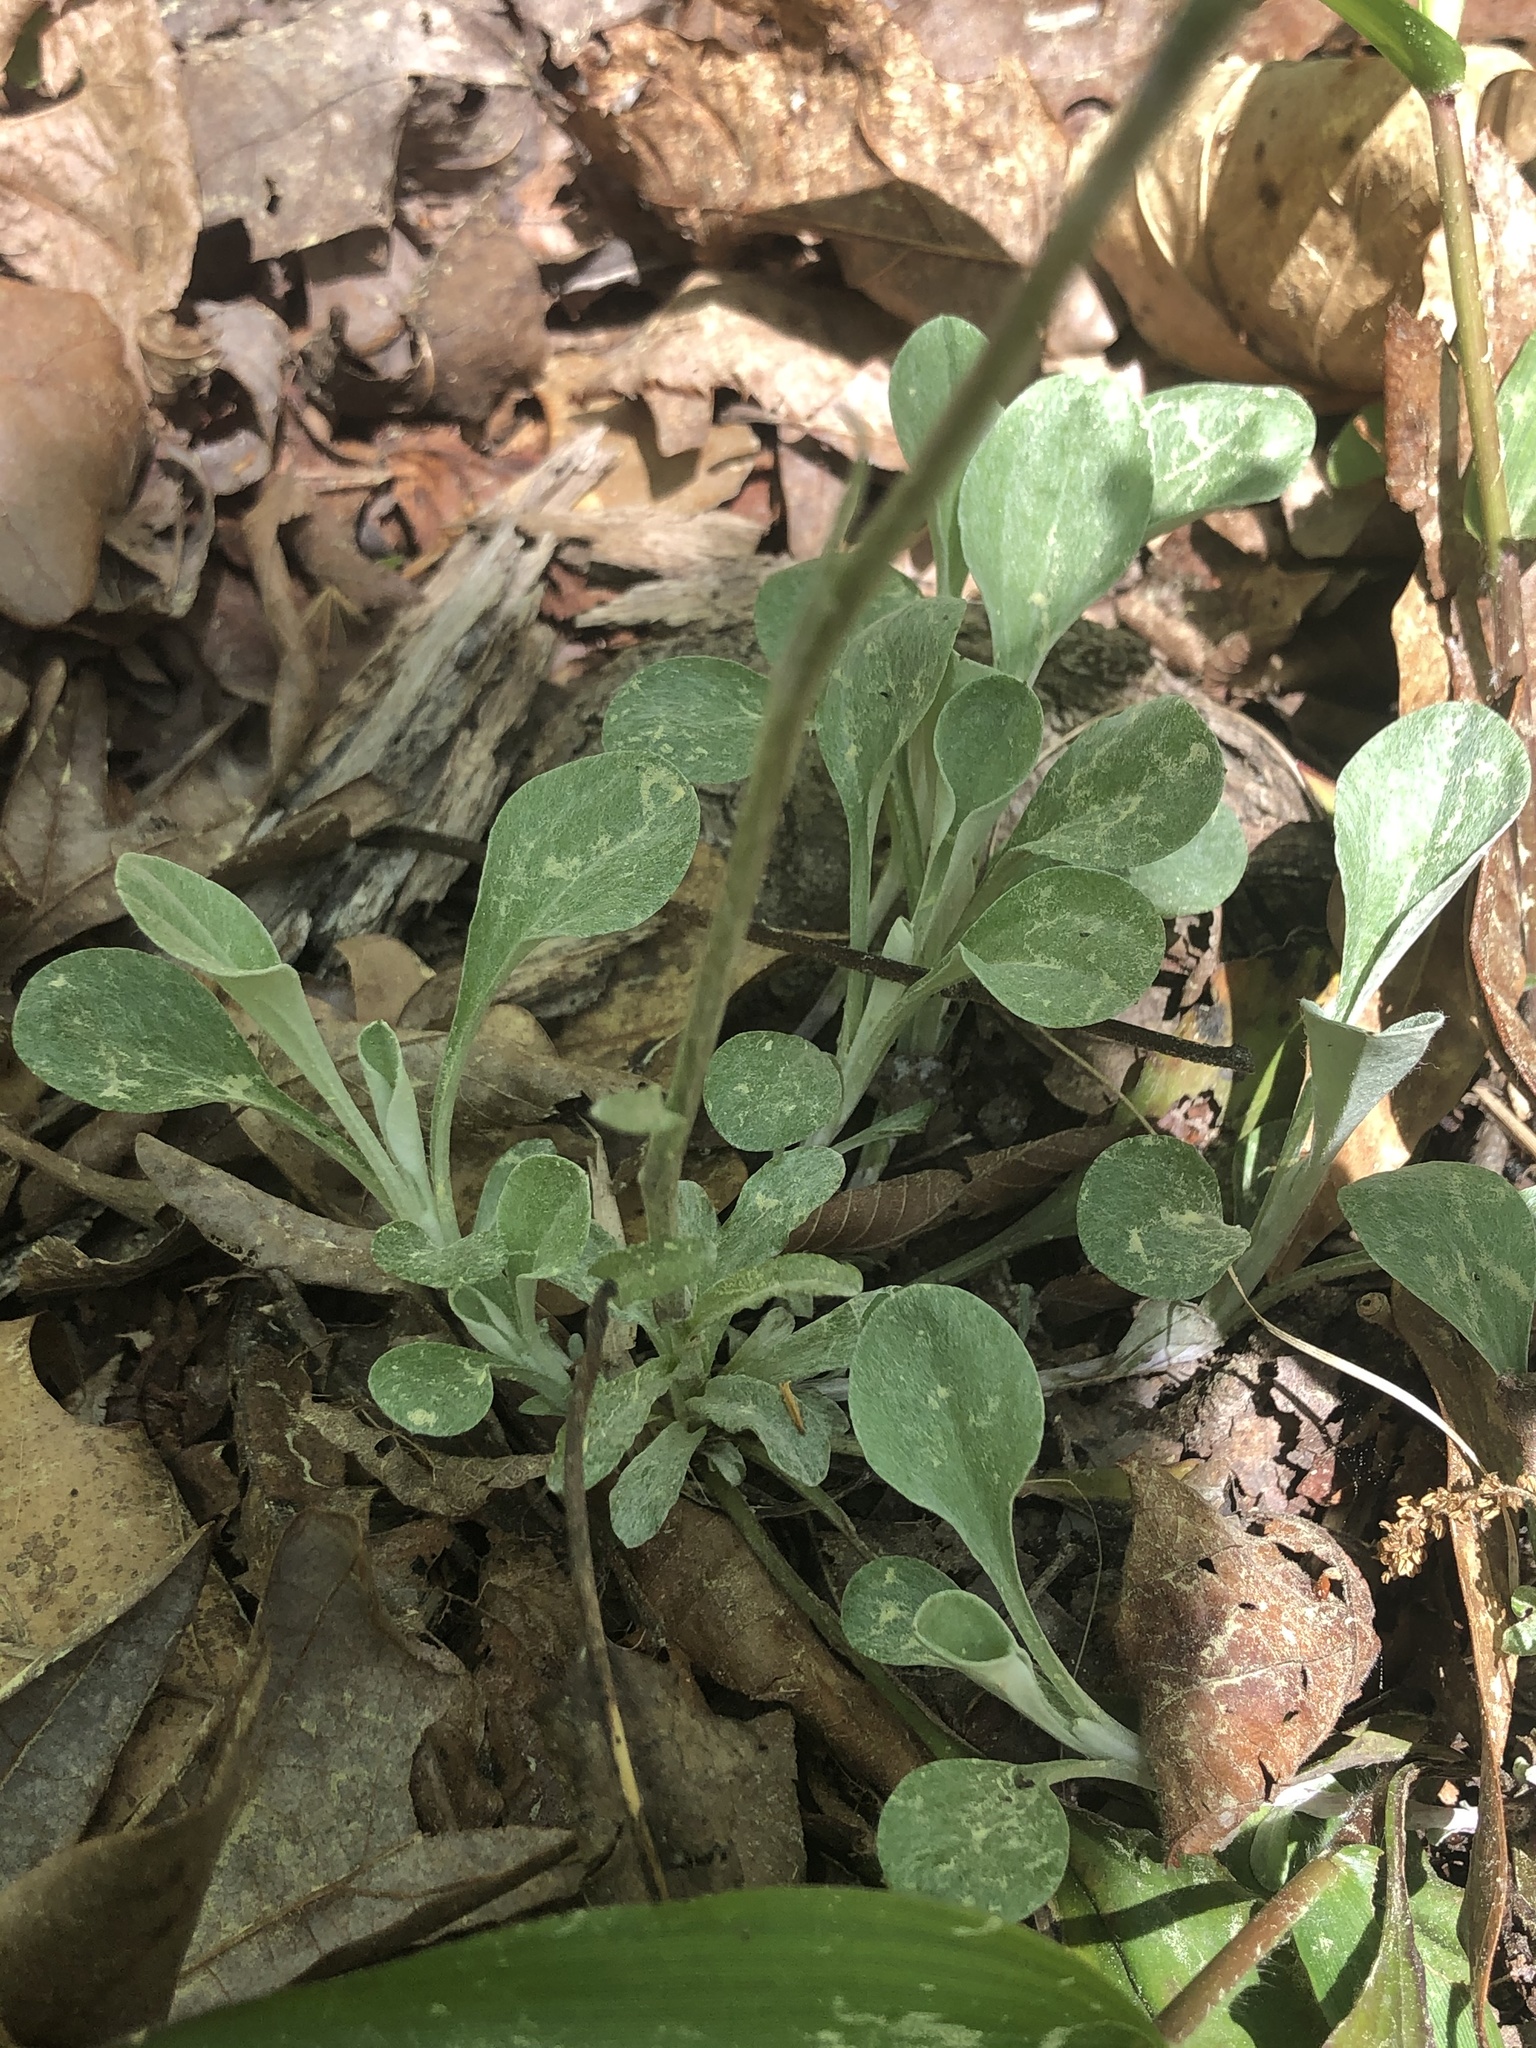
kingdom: Plantae
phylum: Tracheophyta
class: Magnoliopsida
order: Asterales
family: Asteraceae
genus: Antennaria
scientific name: Antennaria plantaginifolia
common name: Plantain-leaved pussytoes
